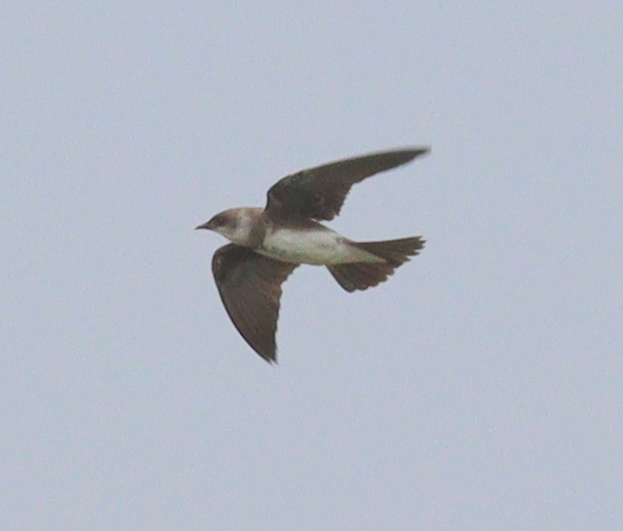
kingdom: Animalia
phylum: Chordata
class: Aves
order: Passeriformes
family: Hirundinidae
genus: Progne
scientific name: Progne tapera
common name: Brown-chested martin
